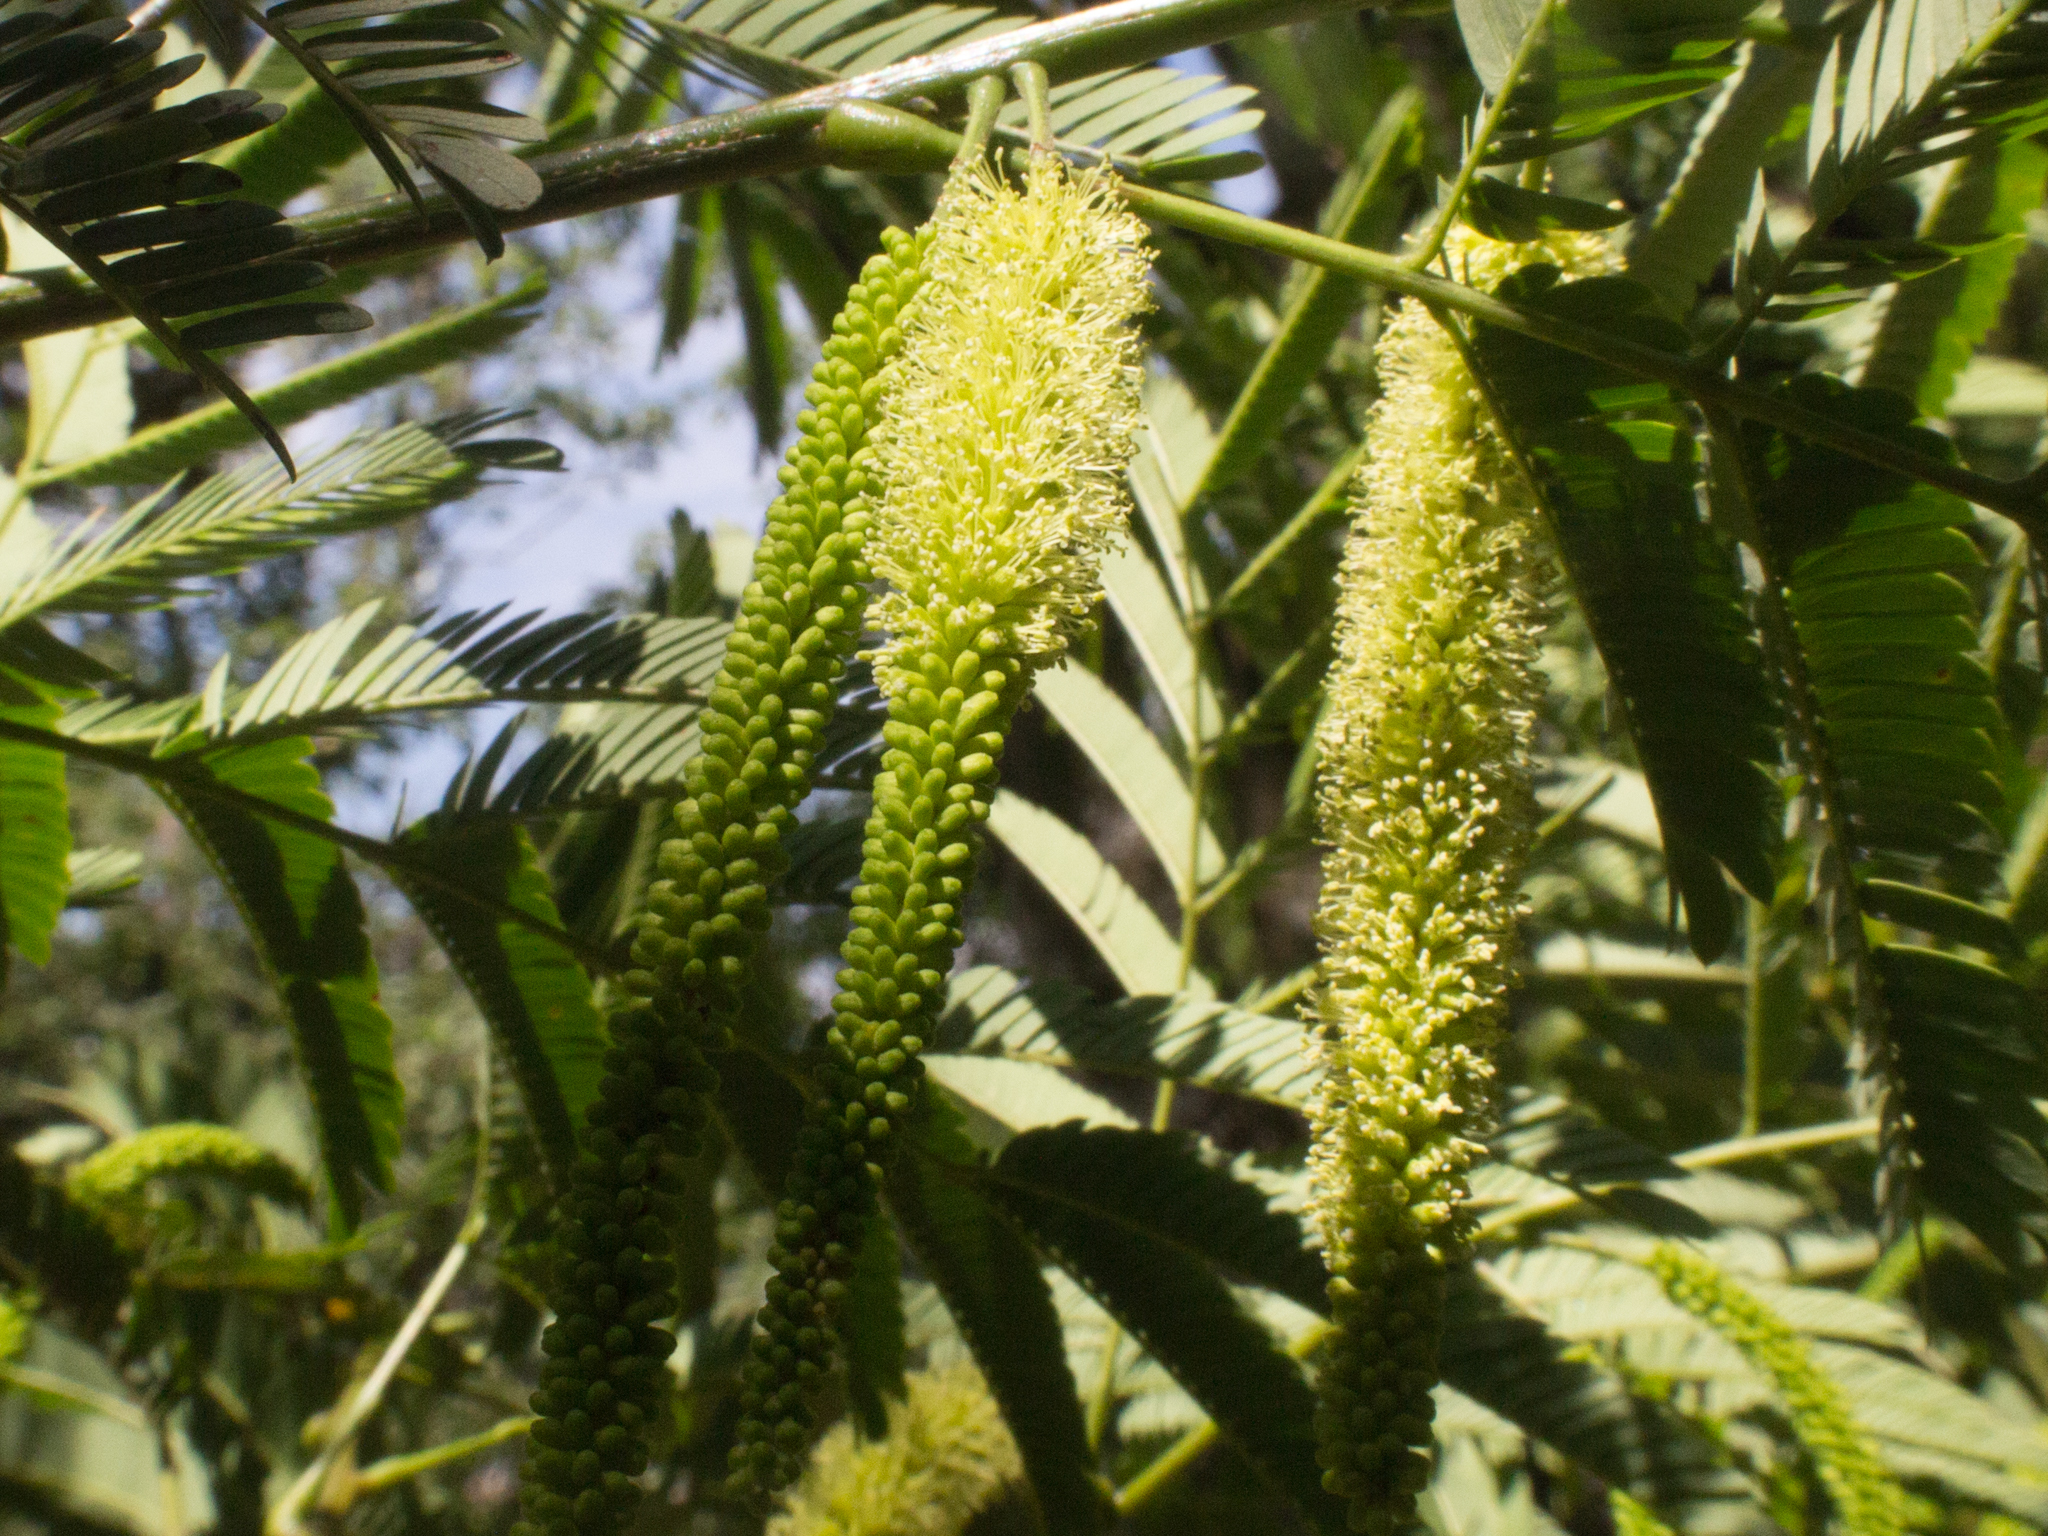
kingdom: Plantae
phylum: Tracheophyta
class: Magnoliopsida
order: Fabales
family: Fabaceae
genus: Parapiptadenia
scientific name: Parapiptadenia rigida
